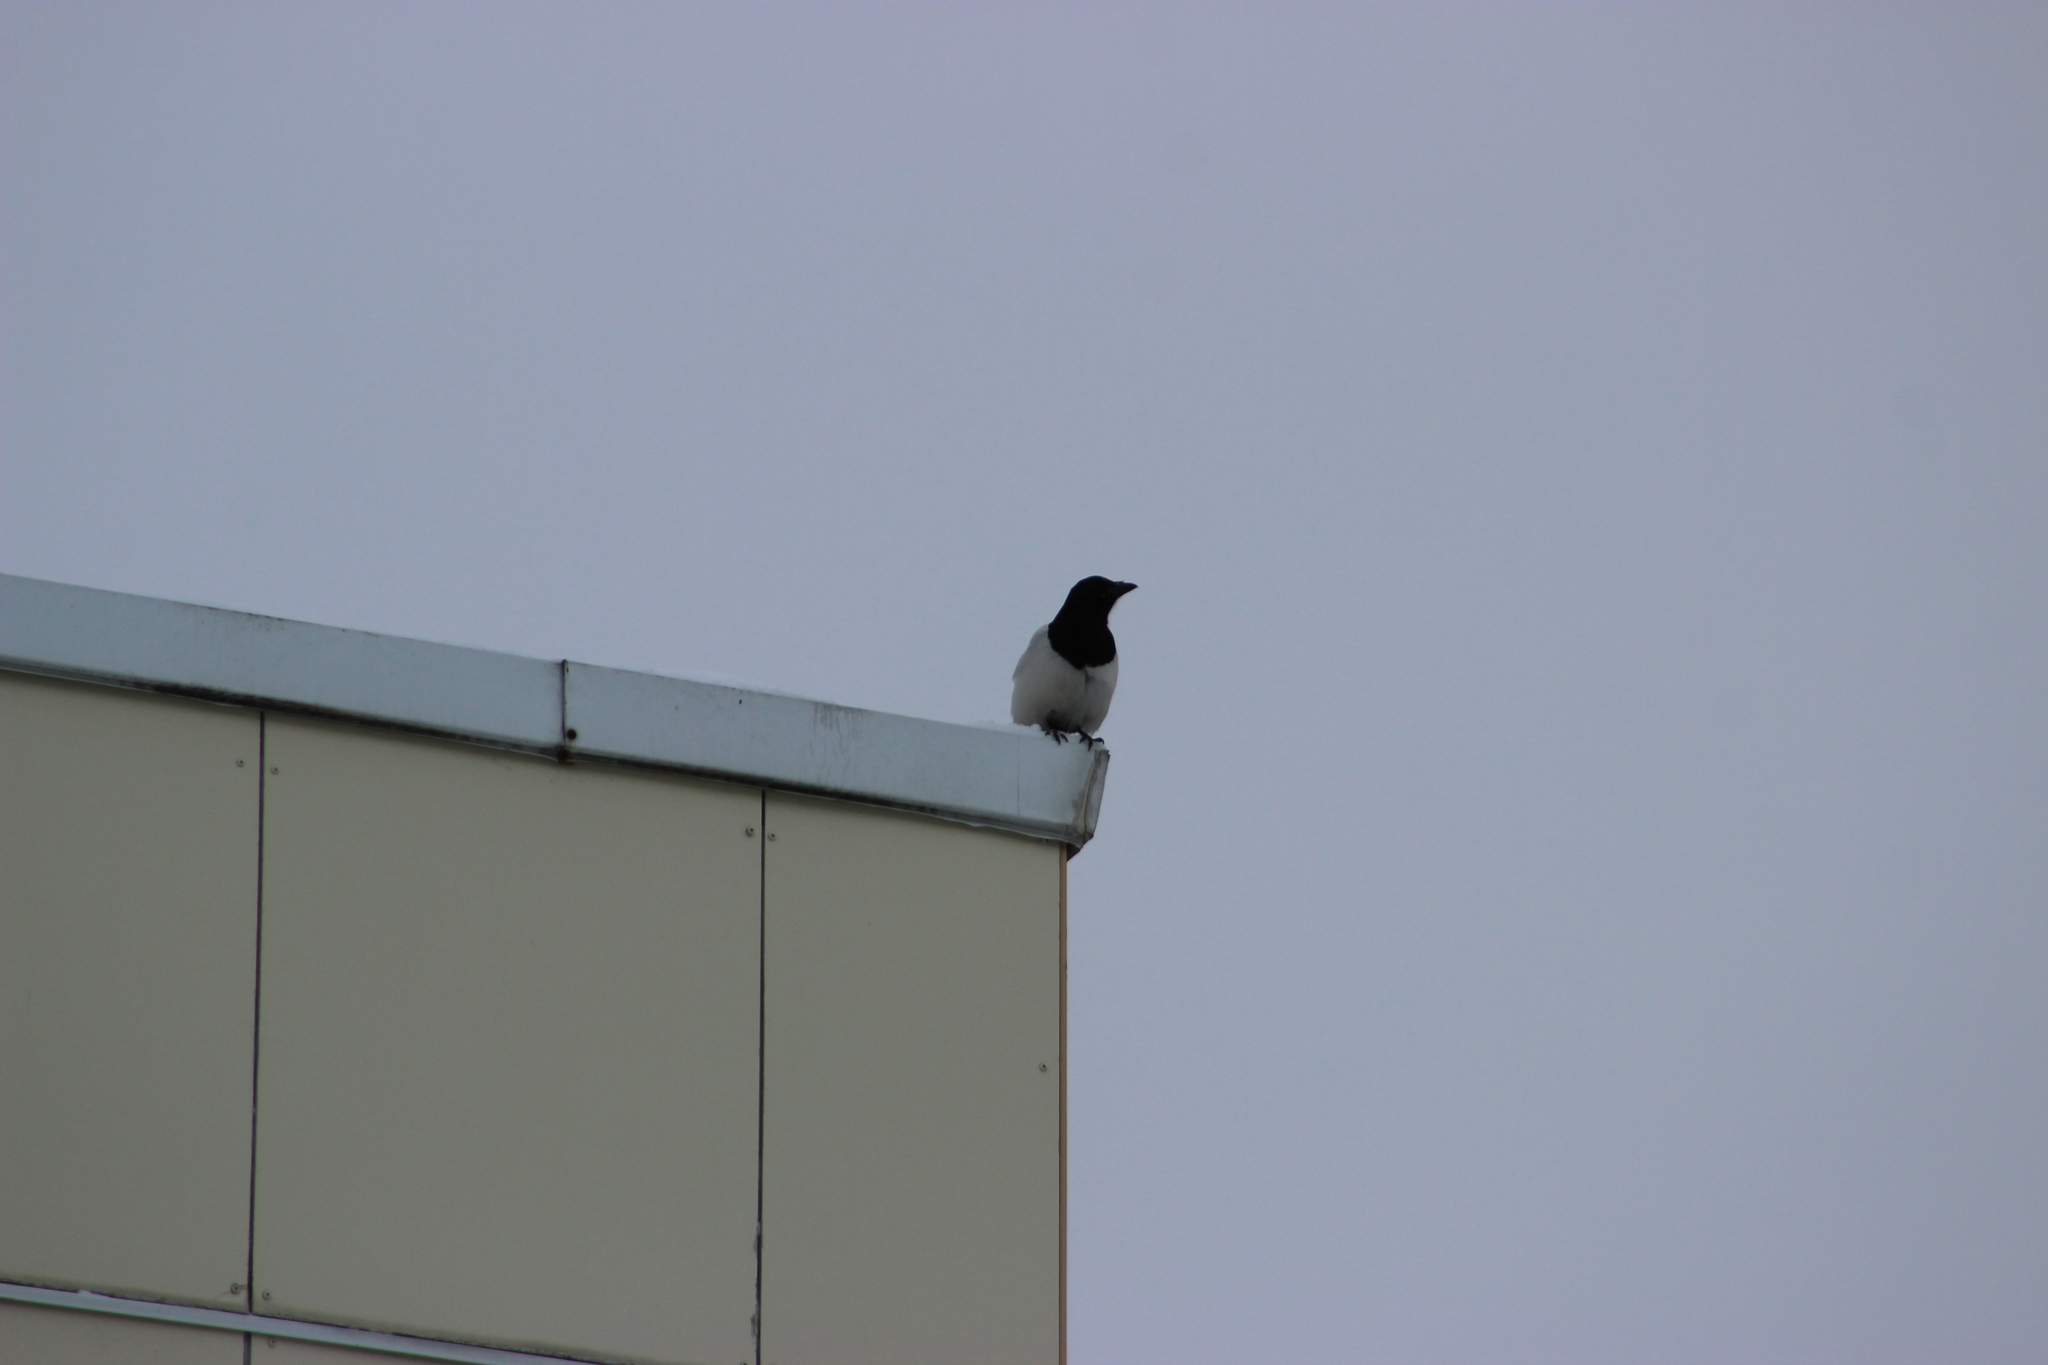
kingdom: Animalia
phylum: Chordata
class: Aves
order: Passeriformes
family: Corvidae
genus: Pica
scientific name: Pica pica
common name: Eurasian magpie
